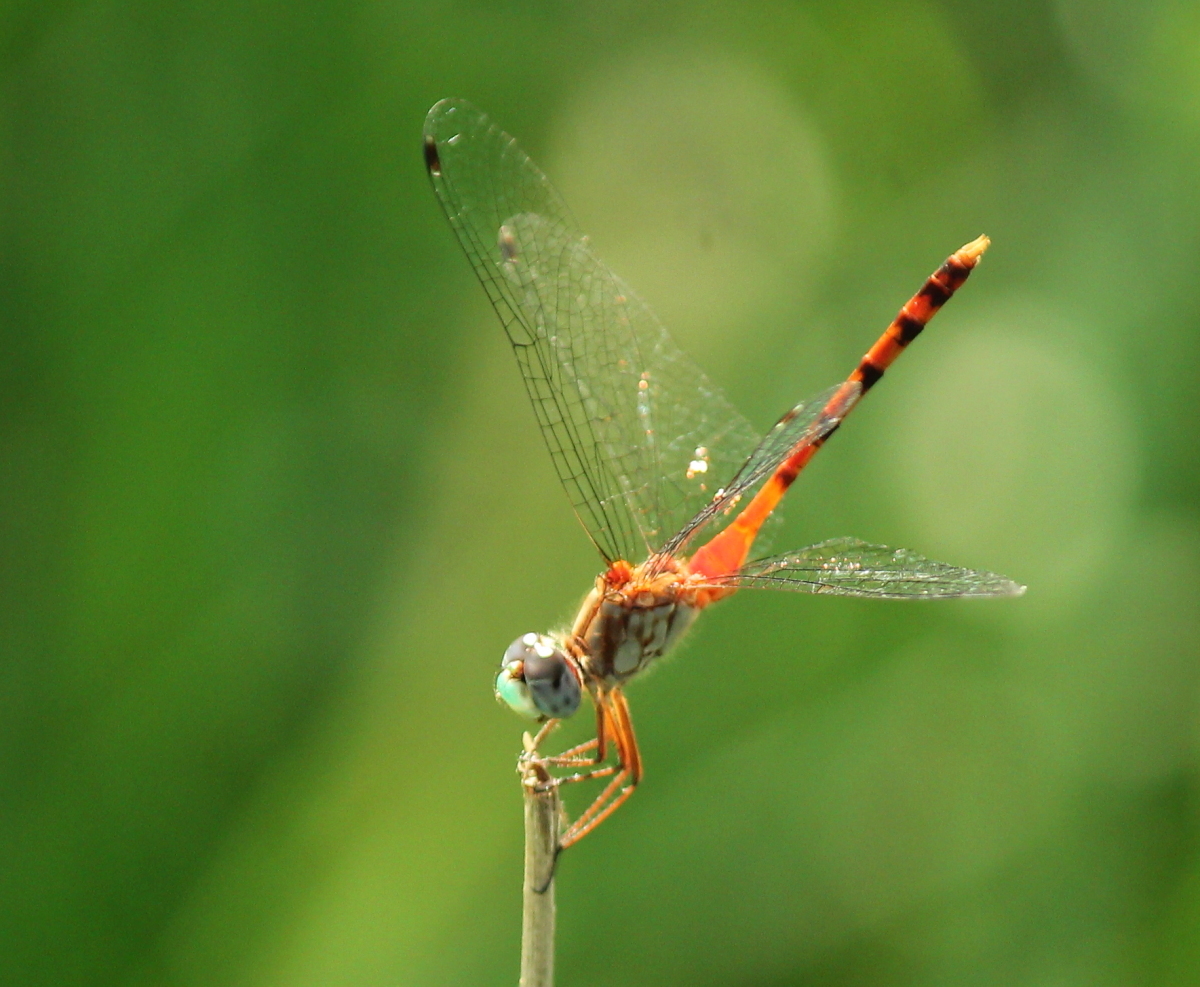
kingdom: Animalia
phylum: Arthropoda
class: Insecta
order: Odonata
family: Libellulidae
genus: Sympetrum
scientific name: Sympetrum ambiguum
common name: Blue-faced meadowhawk
